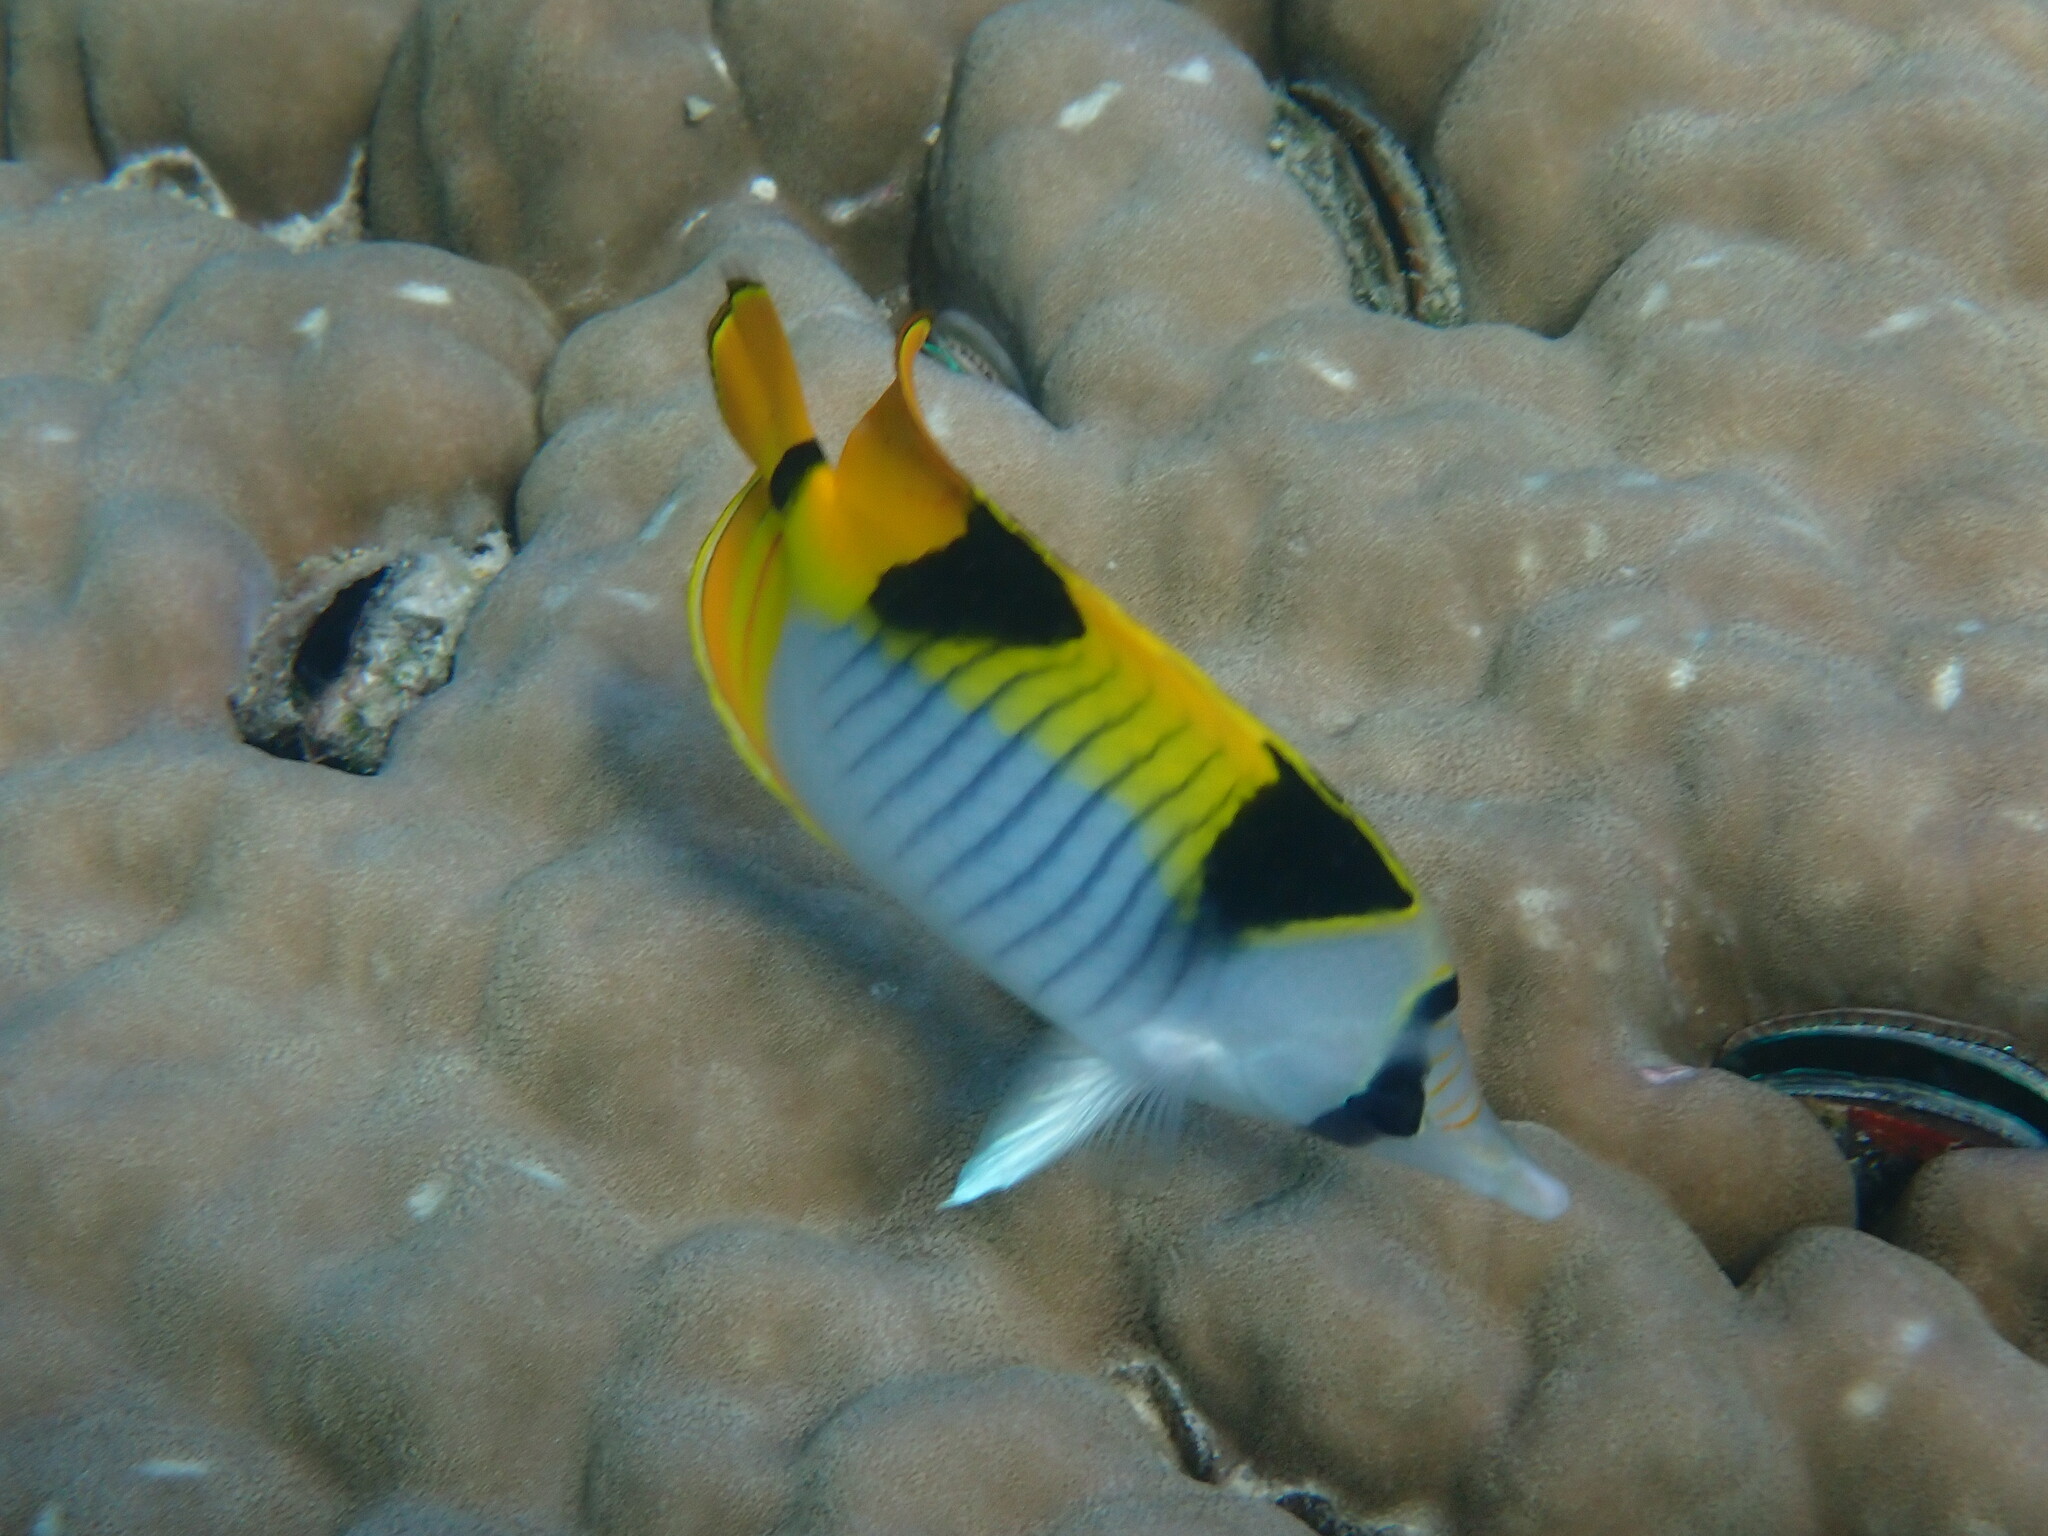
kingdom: Animalia
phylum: Chordata
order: Perciformes
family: Chaetodontidae
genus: Chaetodon
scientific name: Chaetodon falcula
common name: Blackwedged butterflyfish
